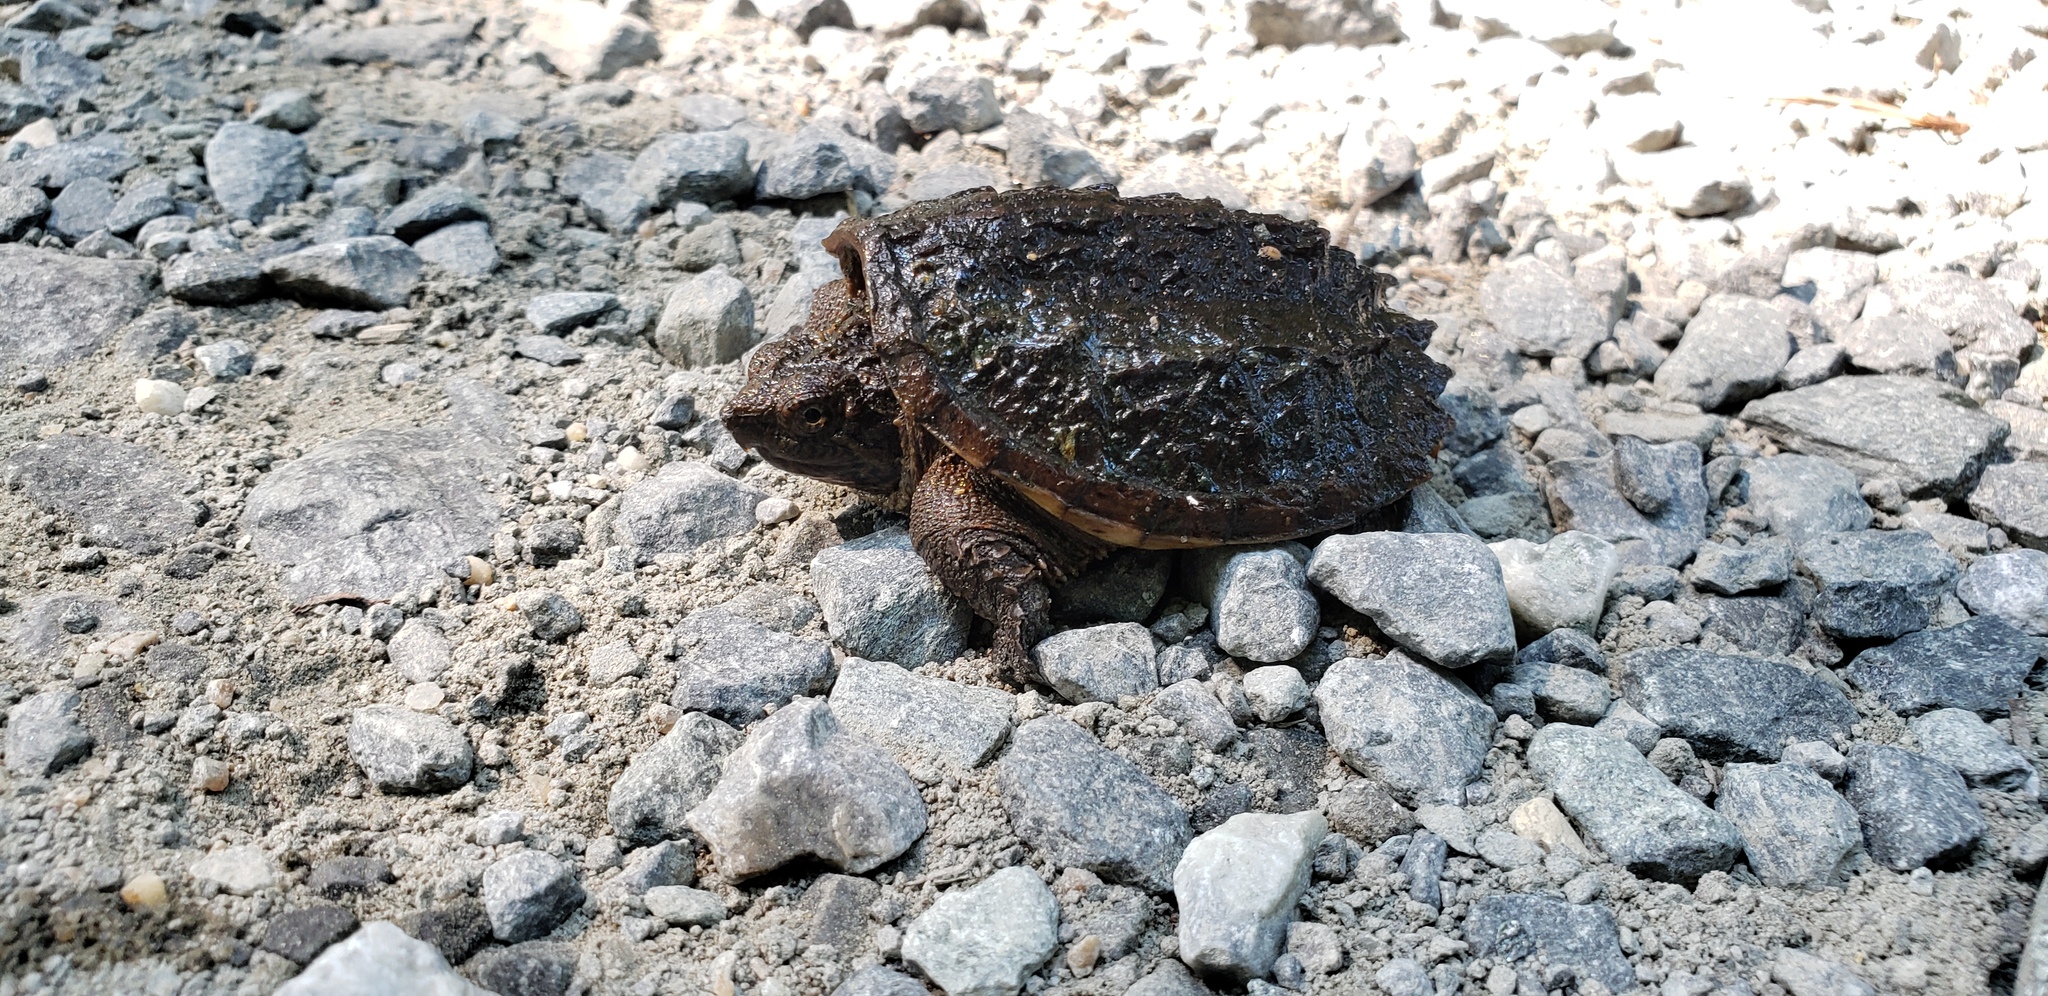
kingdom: Animalia
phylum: Chordata
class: Testudines
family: Chelydridae
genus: Chelydra
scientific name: Chelydra serpentina
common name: Common snapping turtle
